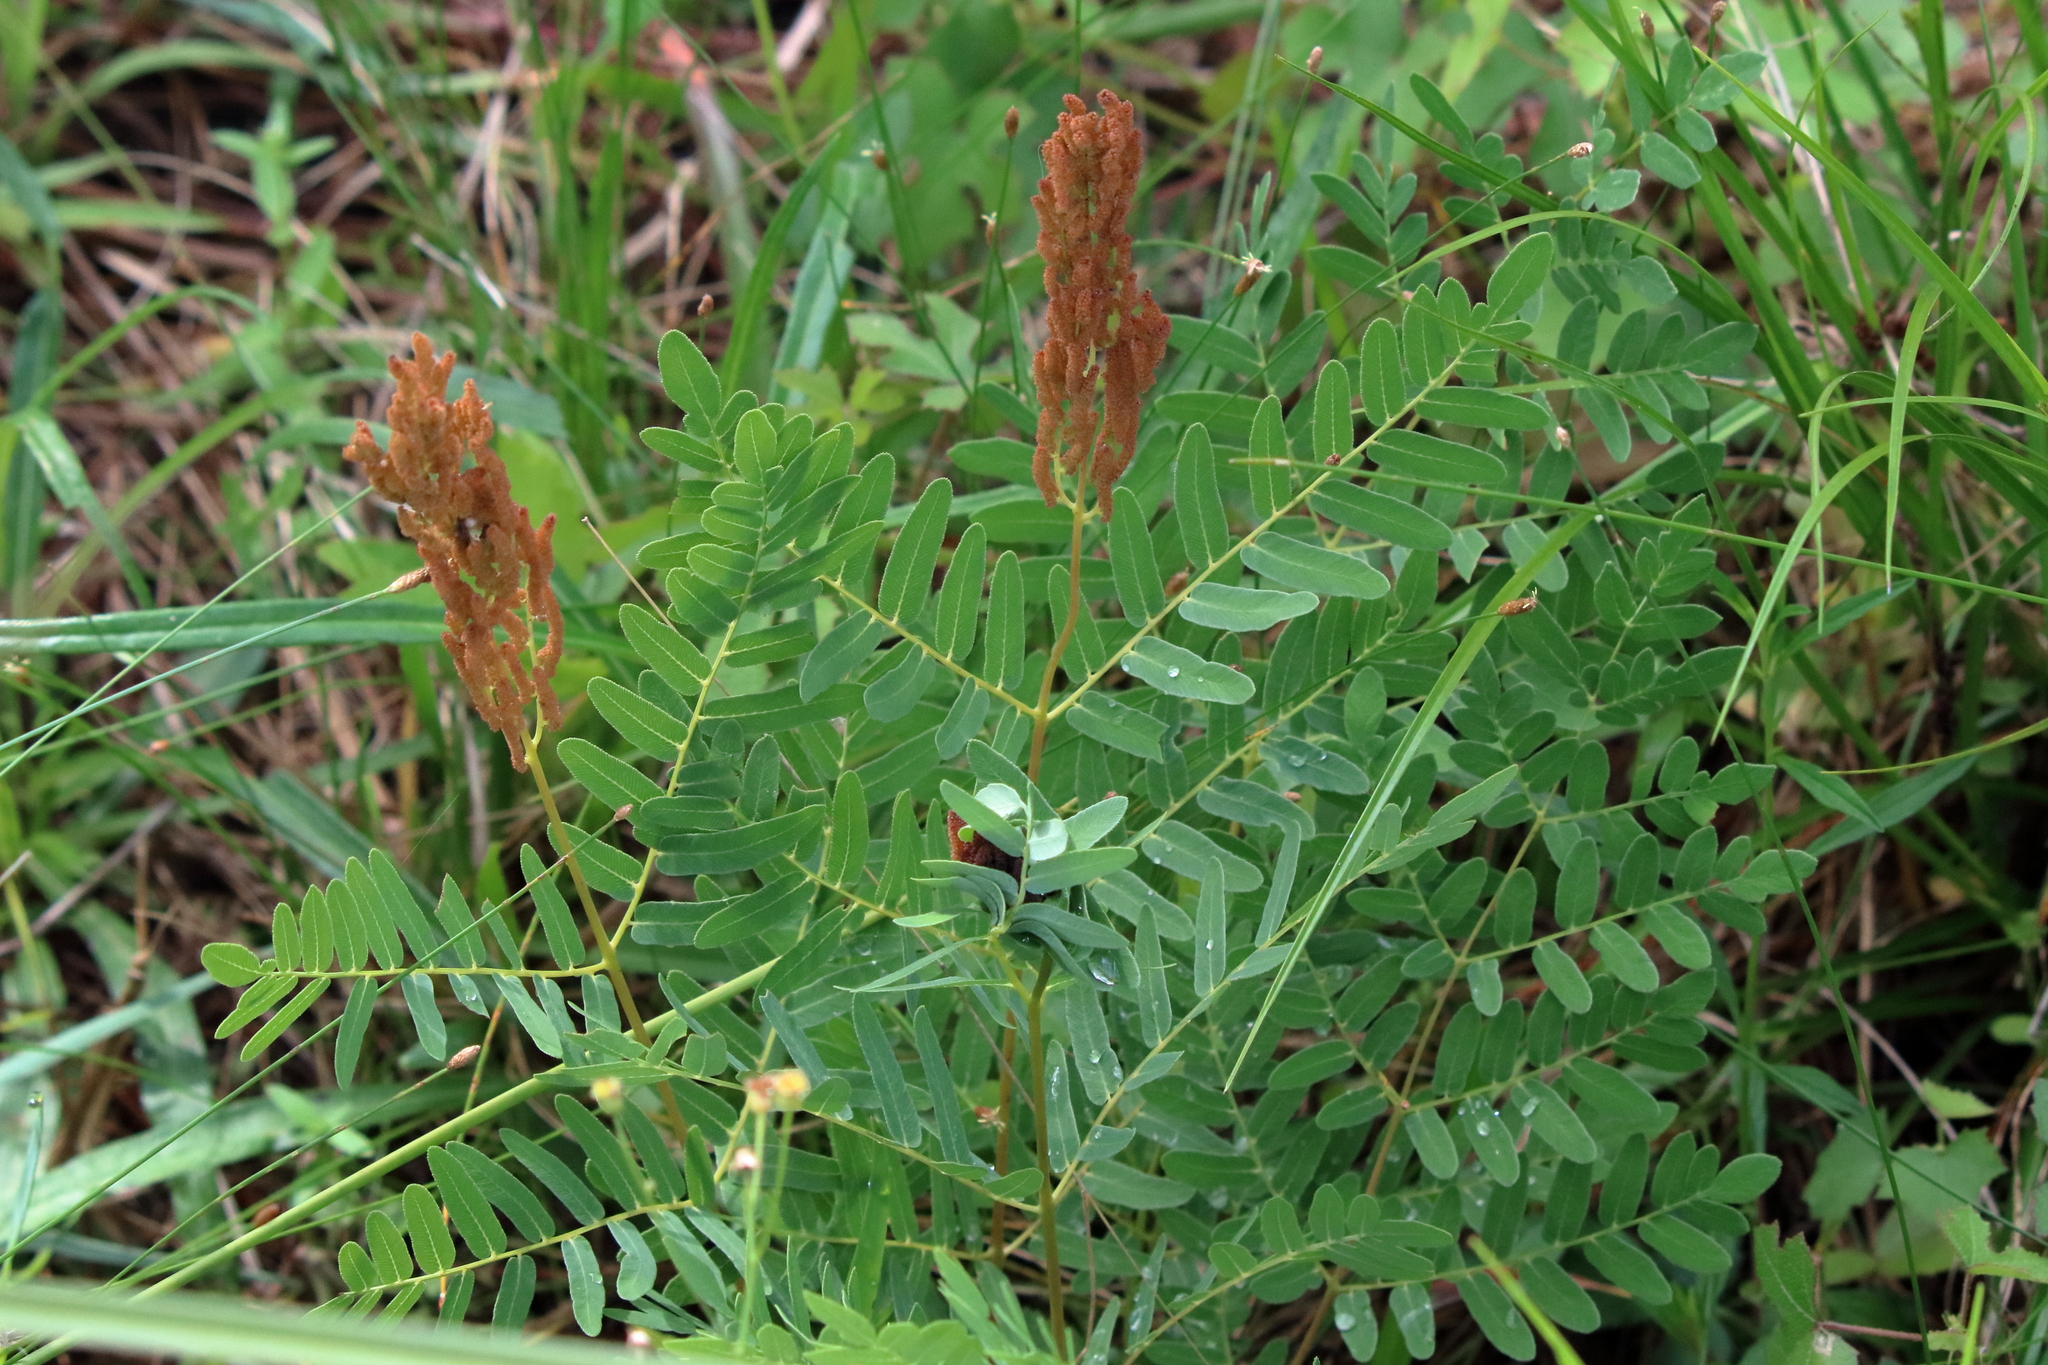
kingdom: Plantae
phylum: Tracheophyta
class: Polypodiopsida
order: Osmundales
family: Osmundaceae
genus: Osmunda
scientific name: Osmunda spectabilis
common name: American royal fern
